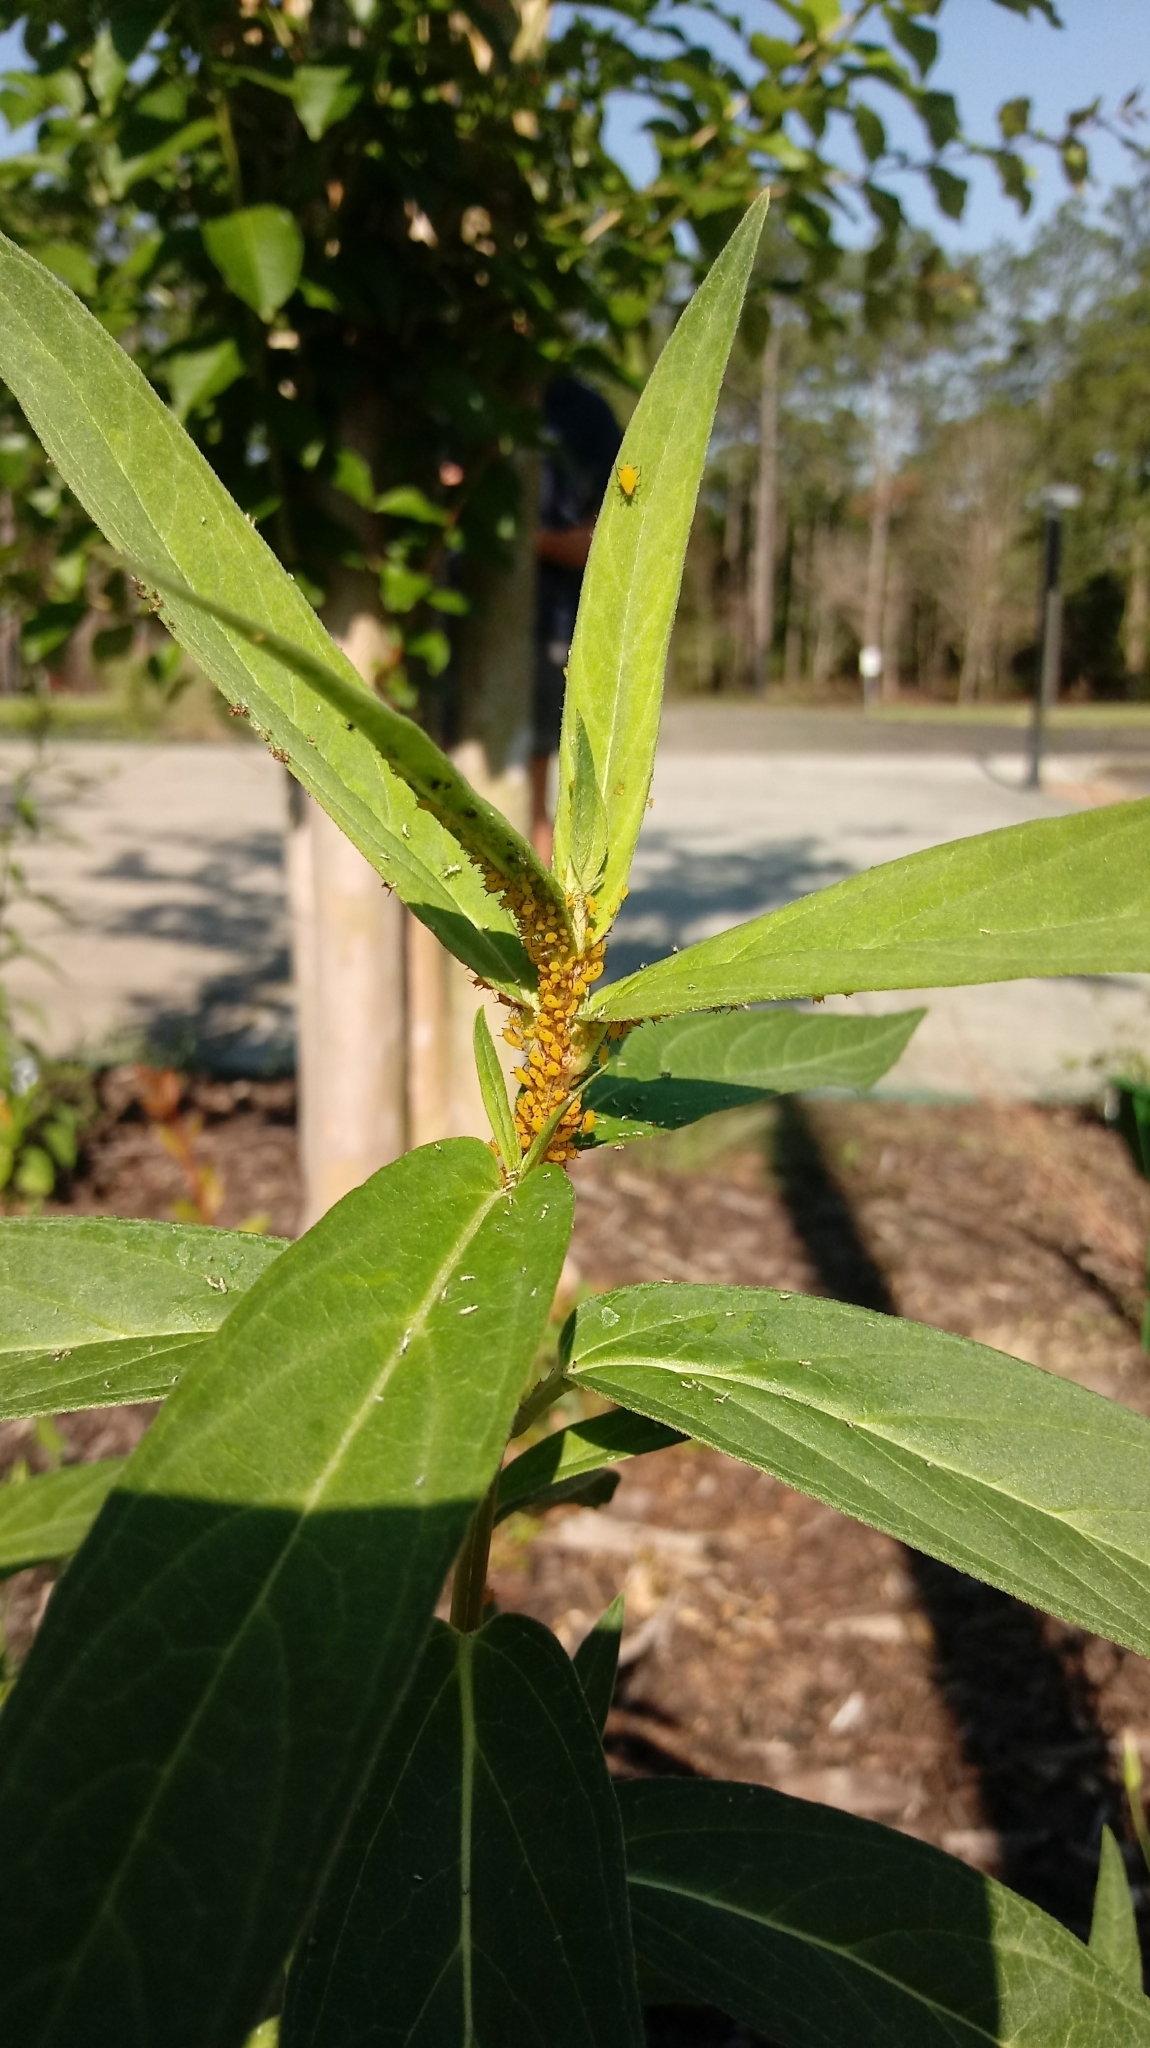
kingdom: Animalia
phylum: Arthropoda
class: Insecta
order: Hemiptera
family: Aphididae
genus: Aphis
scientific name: Aphis nerii
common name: Oleander aphid
